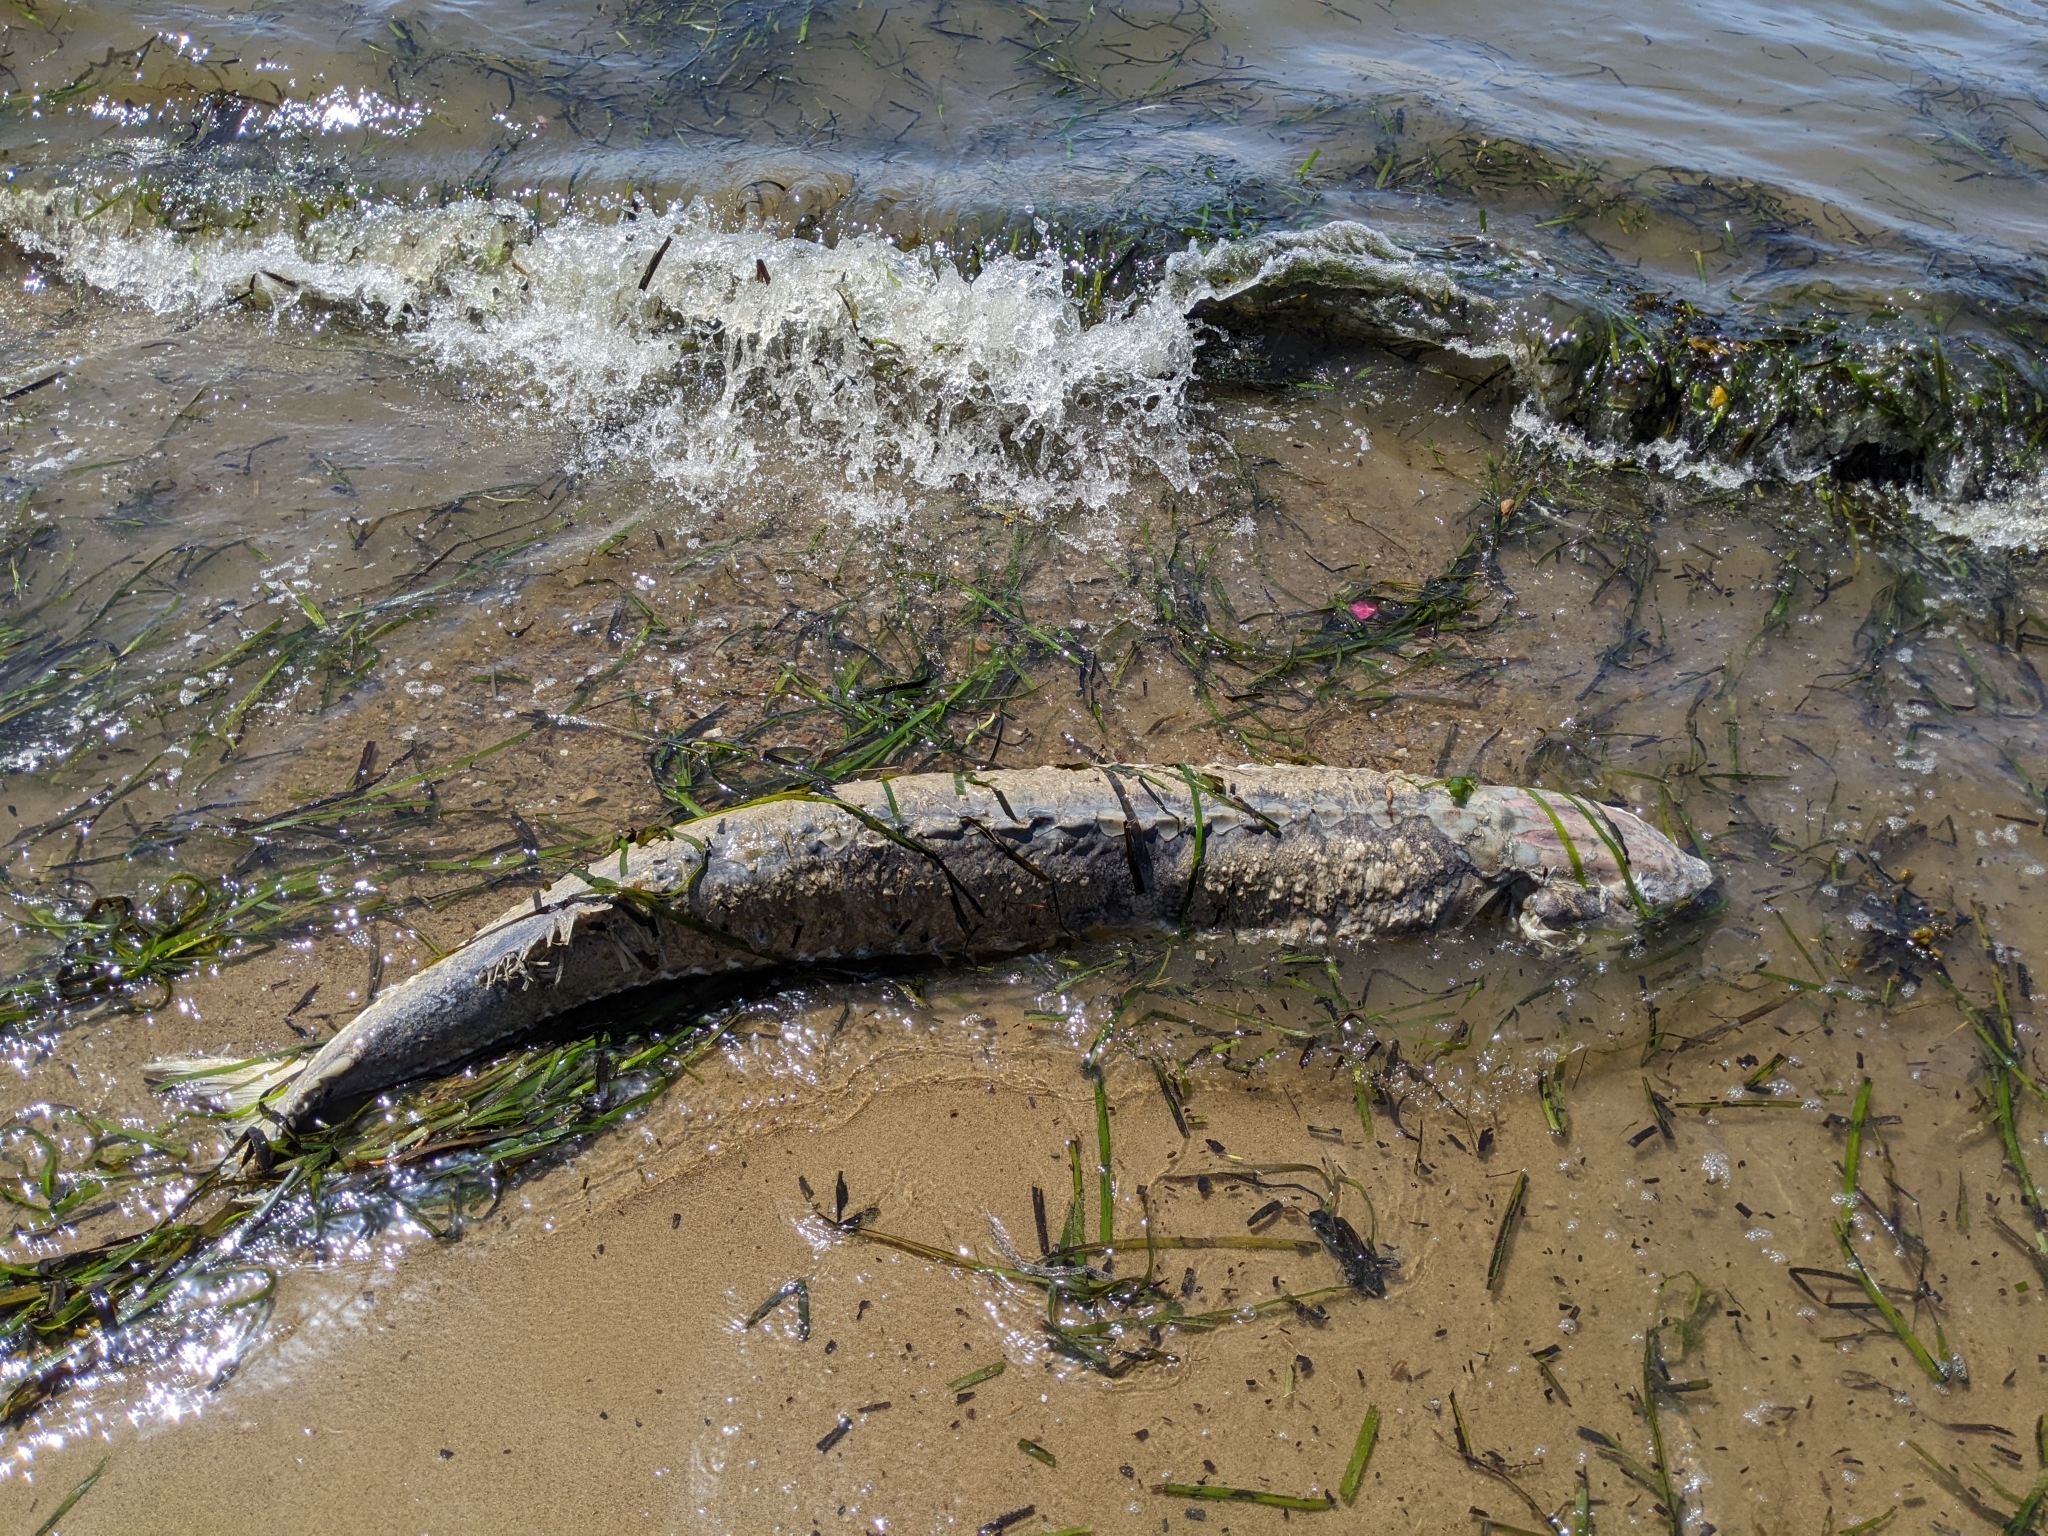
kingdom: Animalia
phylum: Chordata
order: Acipenseriformes
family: Acipenseridae
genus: Acipenser
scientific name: Acipenser transmontanus
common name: White sturgeon
